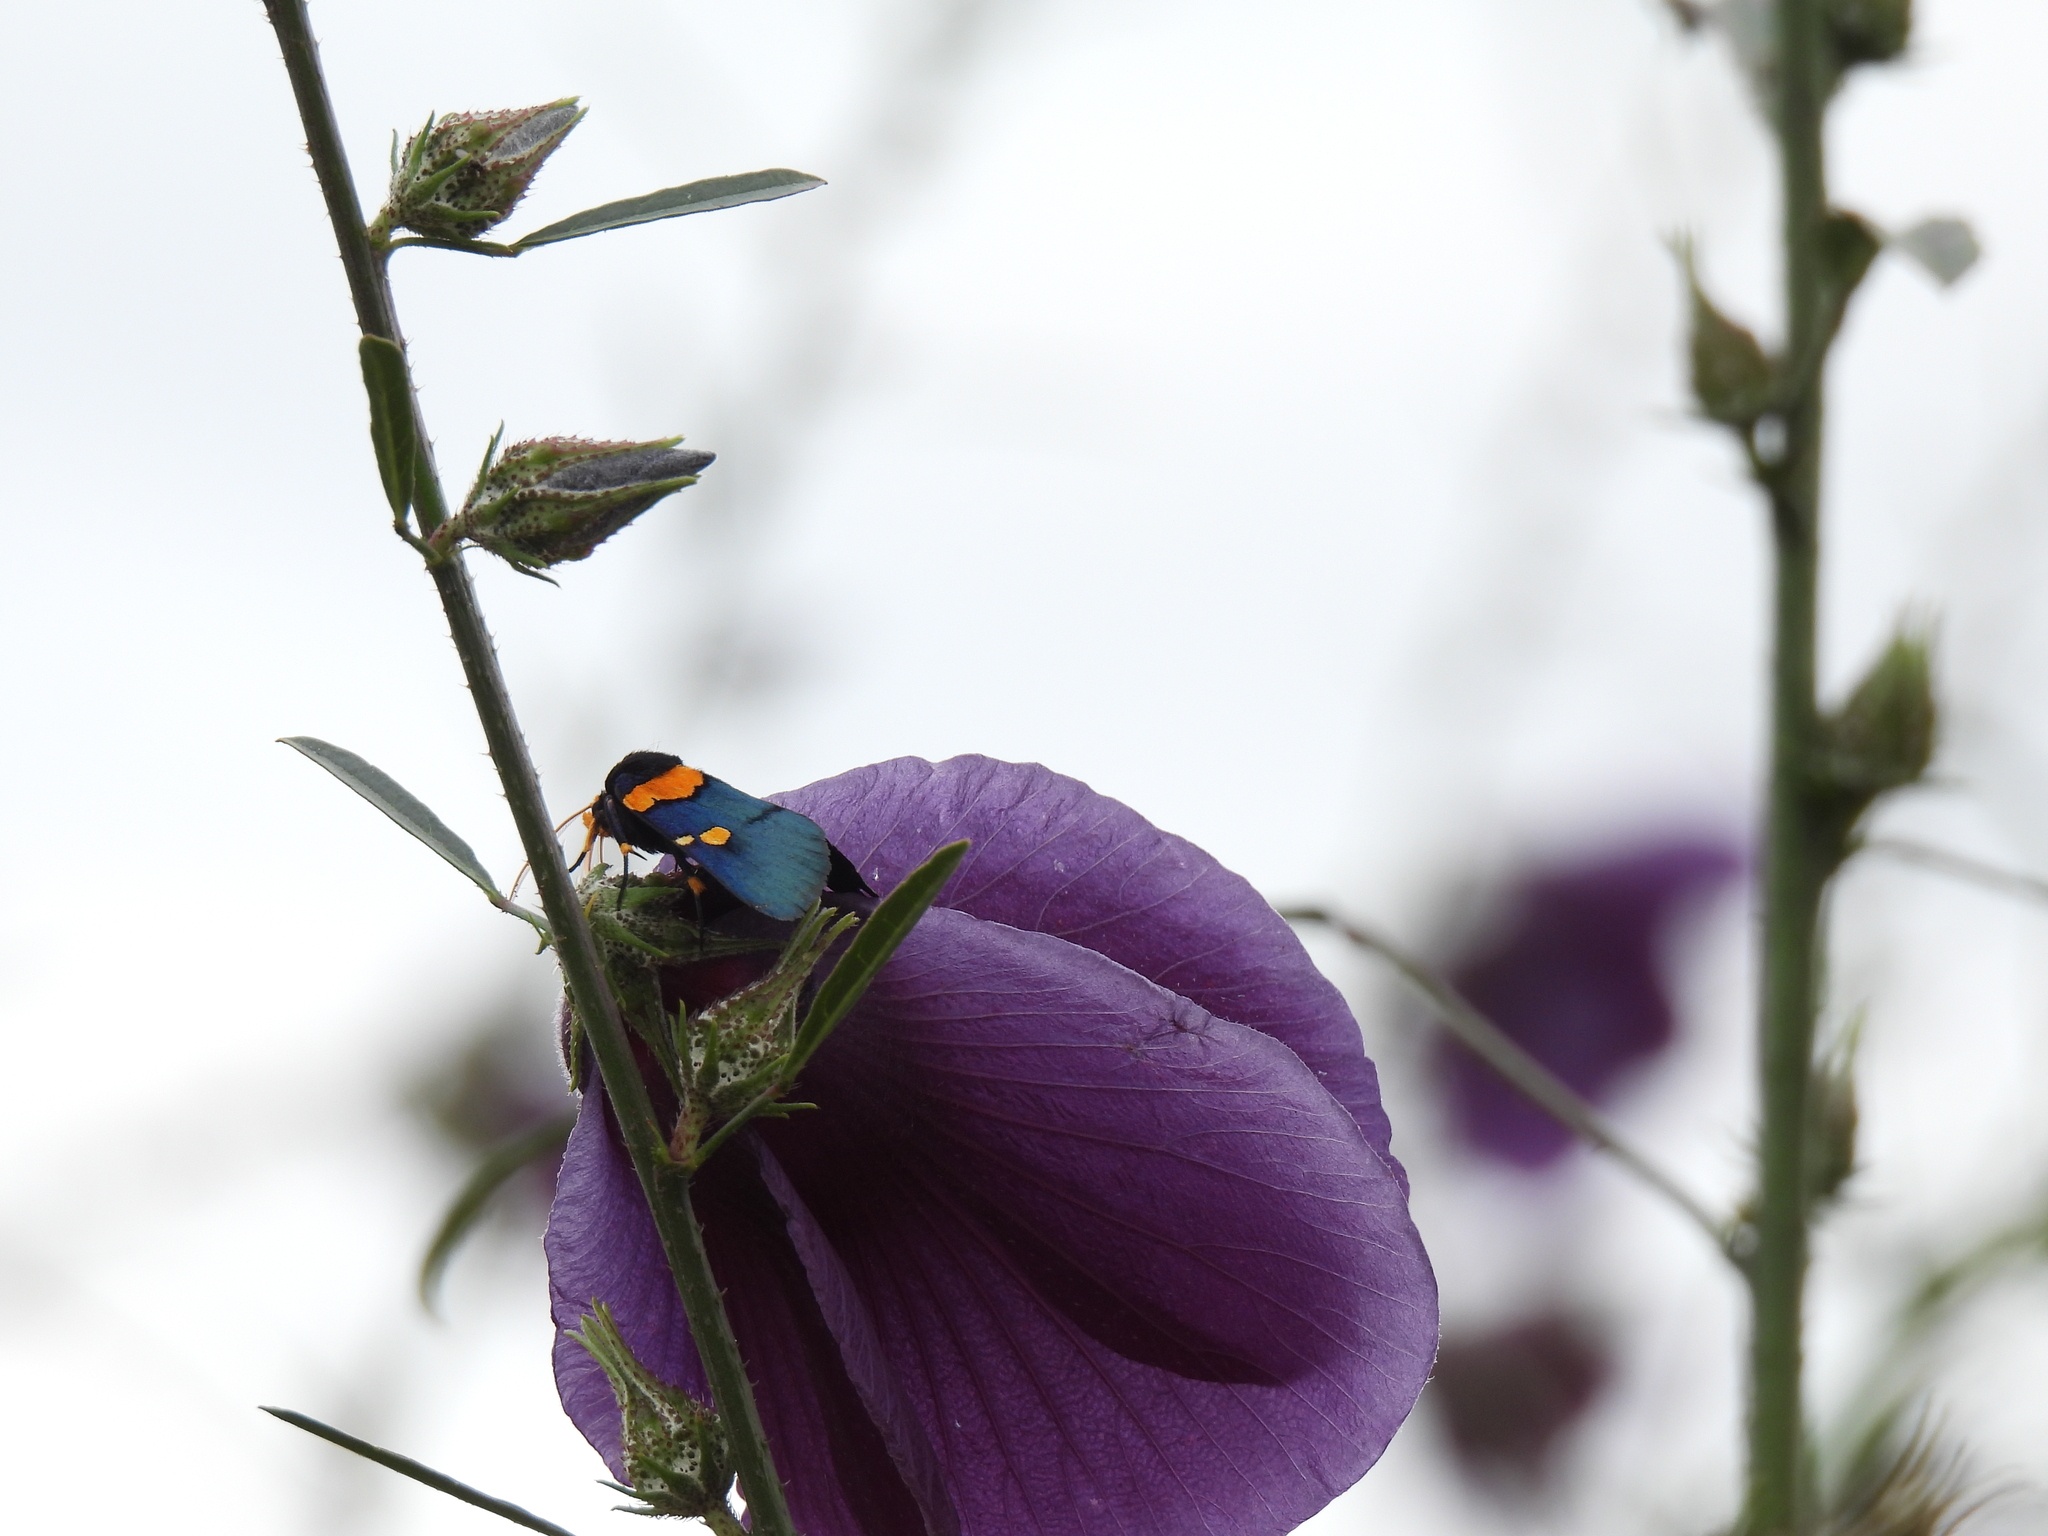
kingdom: Animalia
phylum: Arthropoda
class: Insecta
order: Lepidoptera
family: Erebidae
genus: Egybolis
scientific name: Egybolis vaillantina
